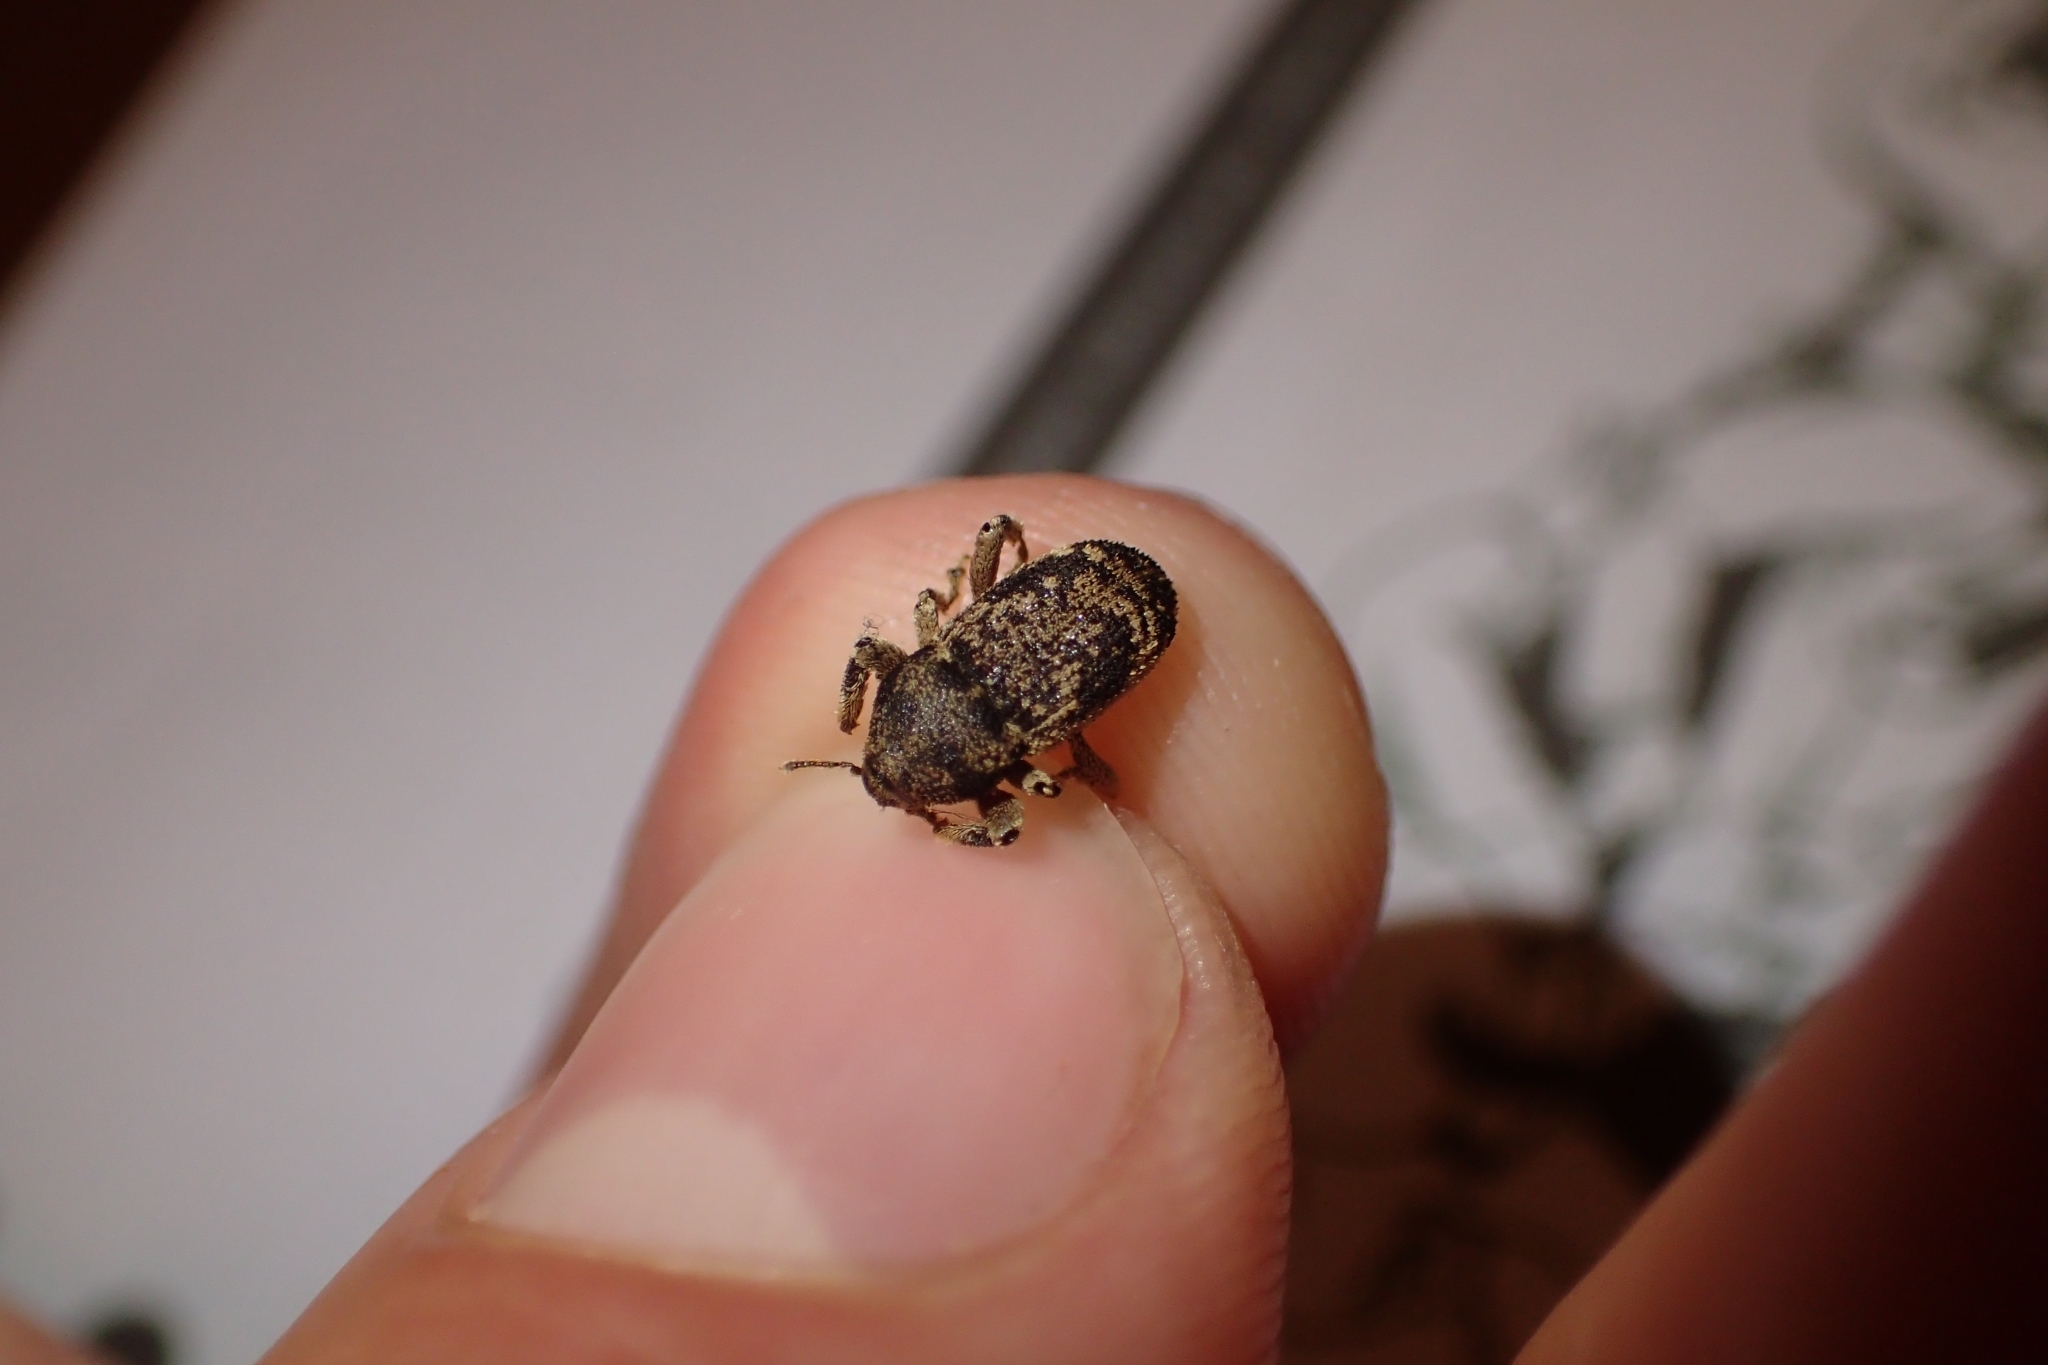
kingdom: Animalia
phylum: Arthropoda
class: Insecta
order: Coleoptera
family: Curculionidae
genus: Strongylopterus
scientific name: Strongylopterus hylopioides
